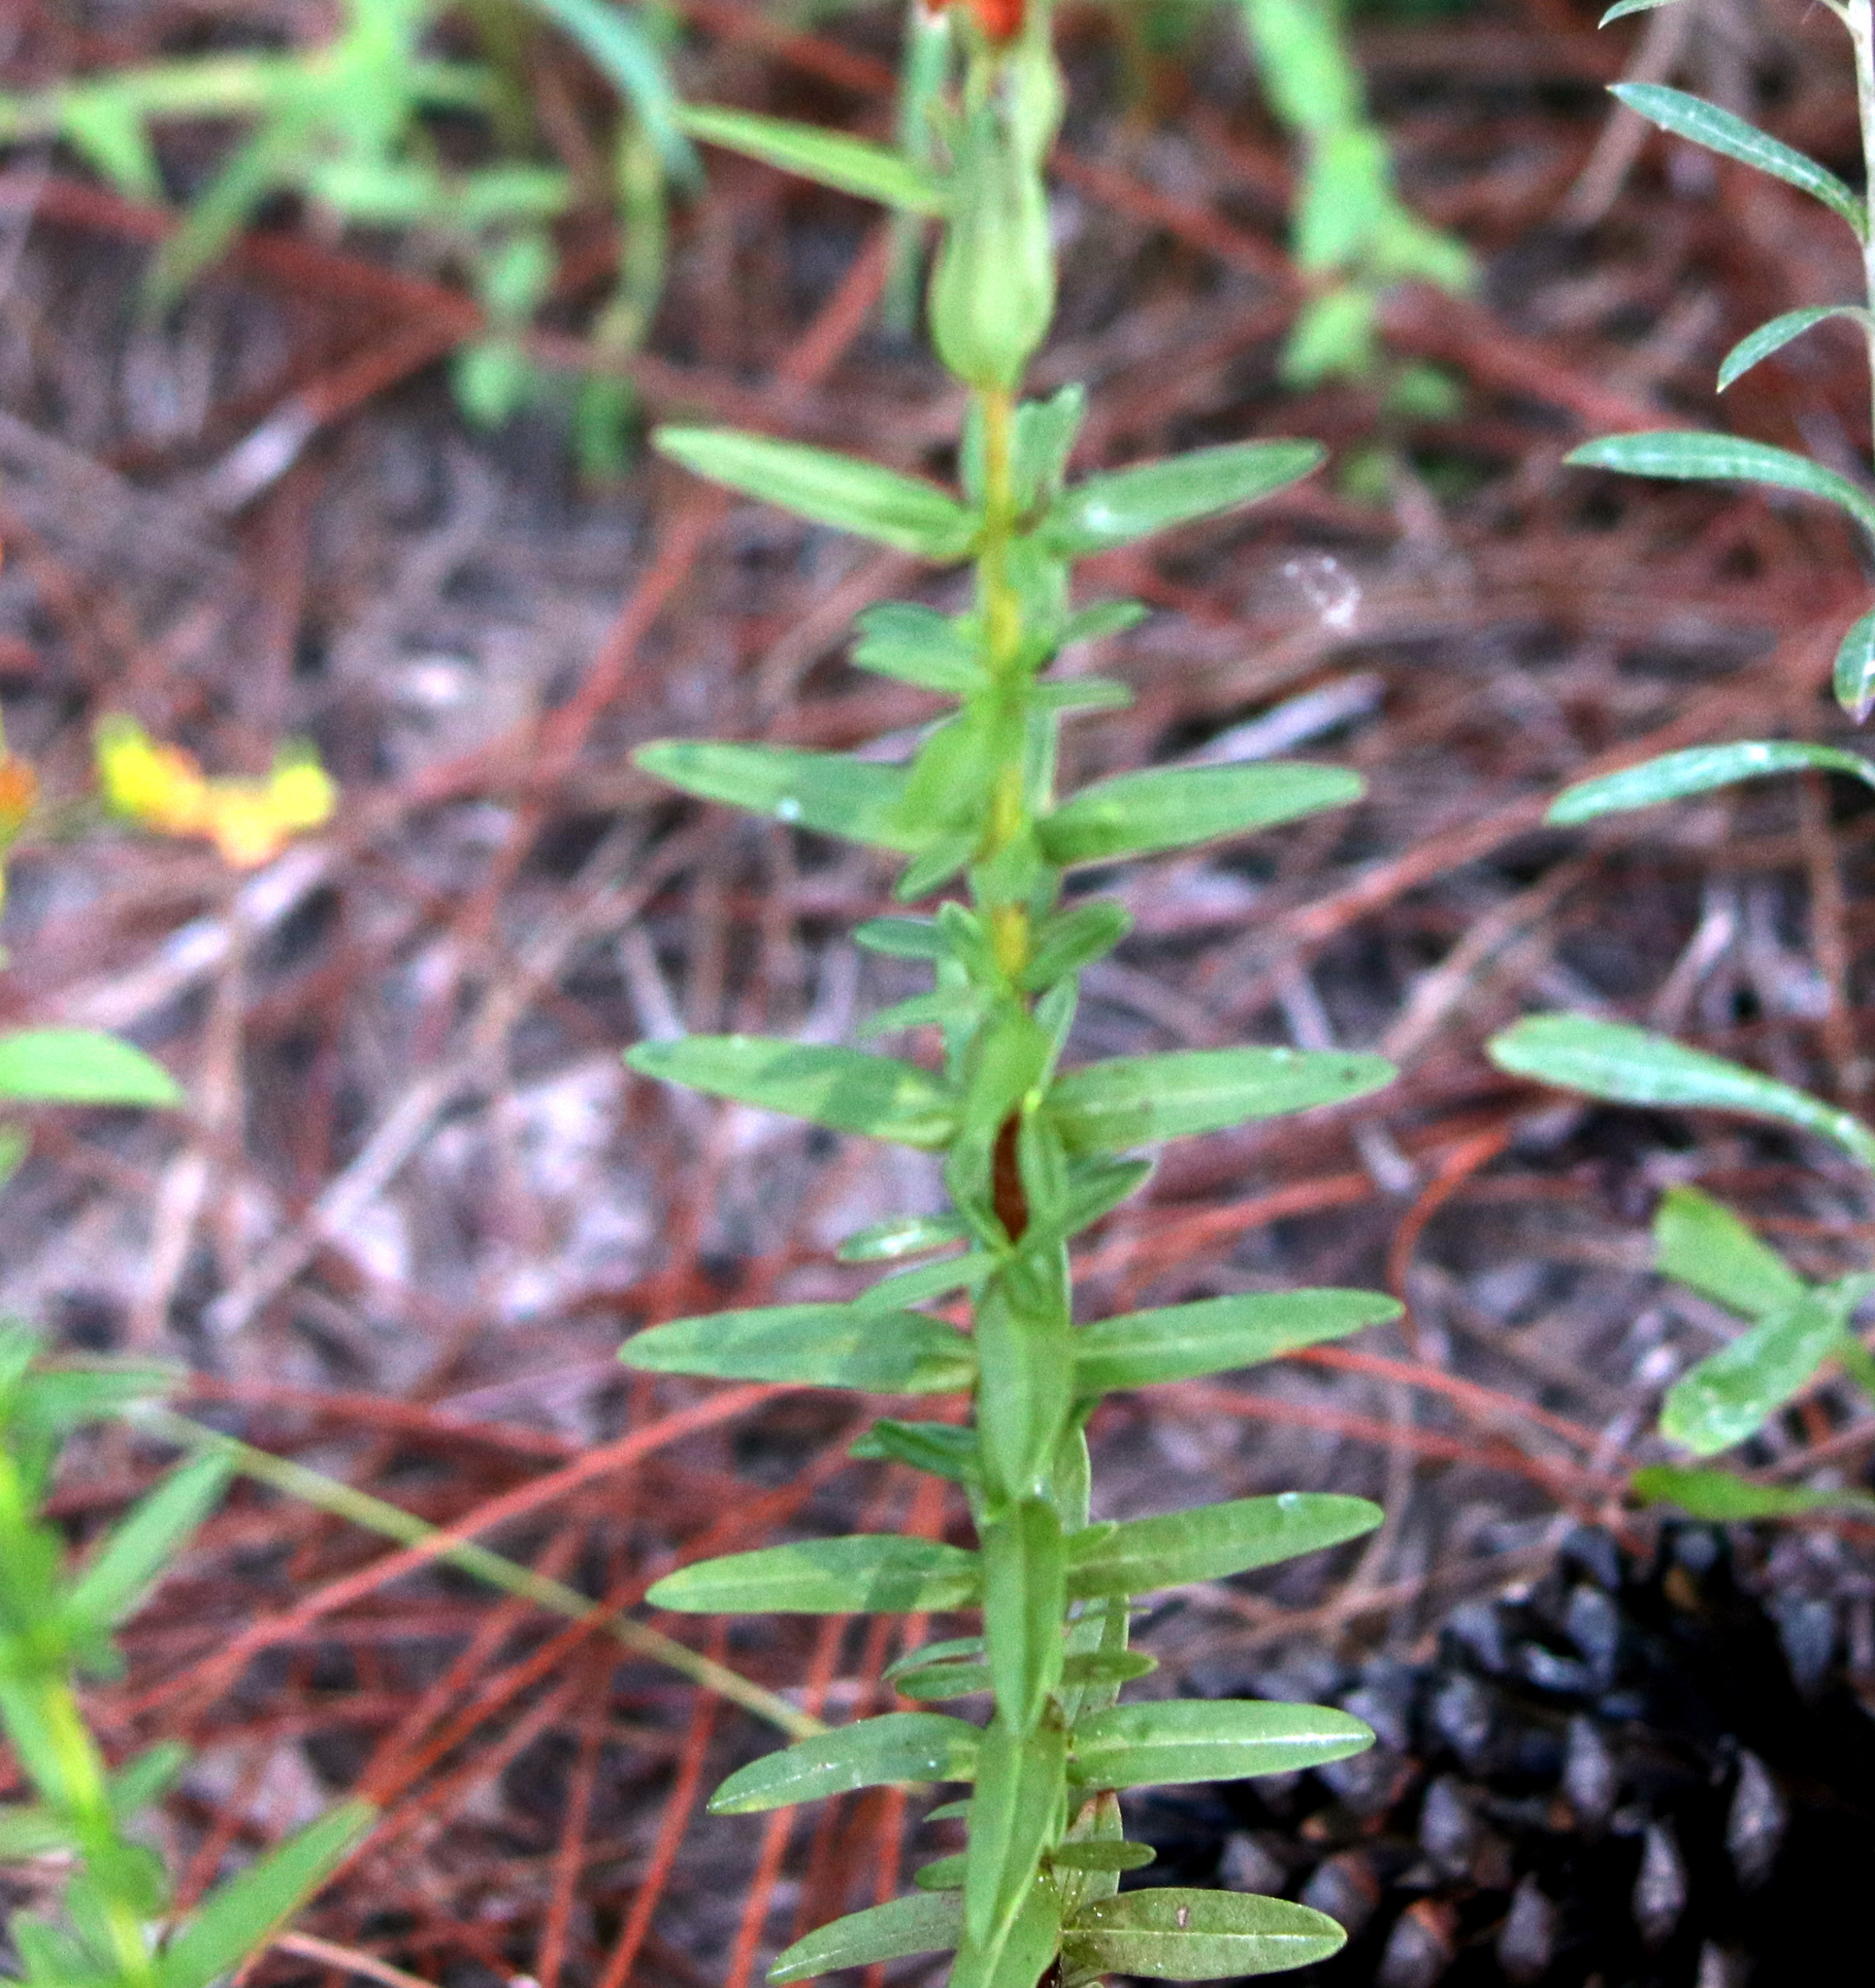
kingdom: Plantae
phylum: Tracheophyta
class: Magnoliopsida
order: Malpighiales
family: Hypericaceae
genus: Hypericum
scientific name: Hypericum cistifolium
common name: Round-pod st. john's-wort
